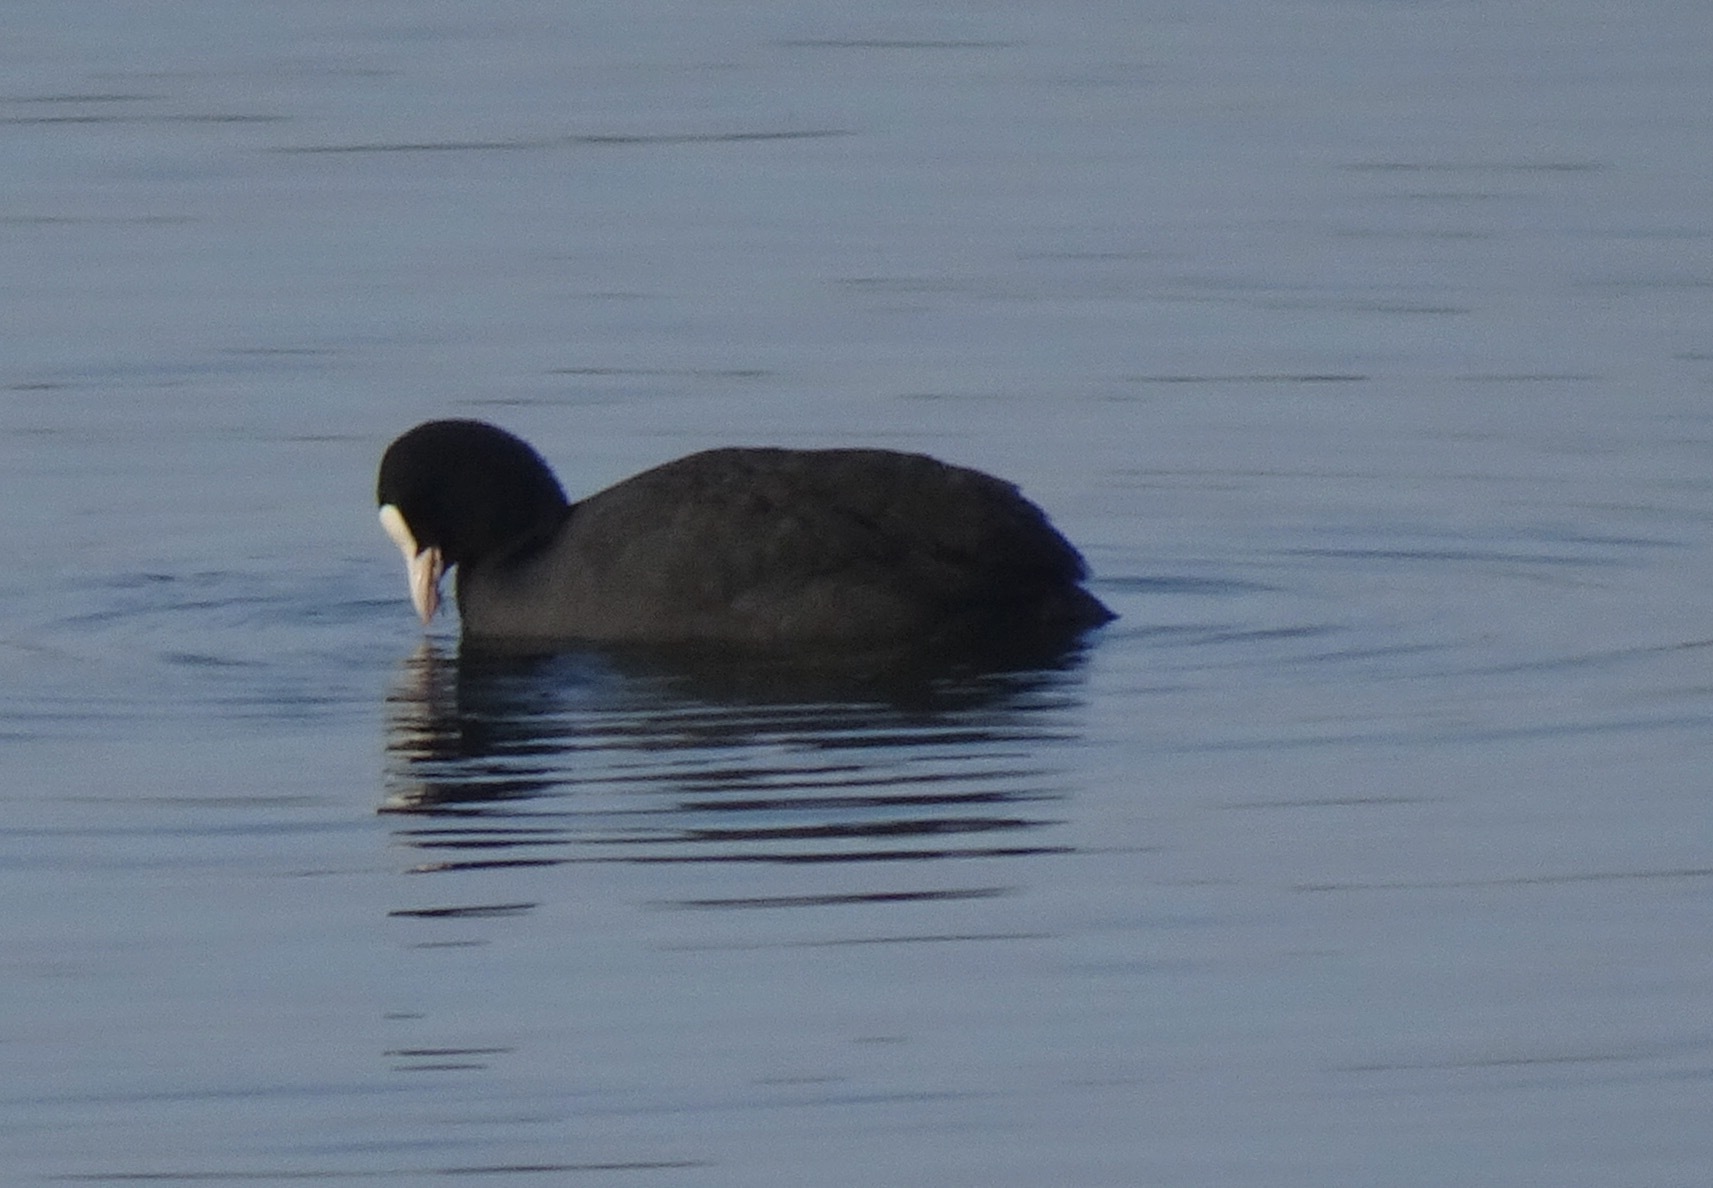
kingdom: Animalia
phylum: Chordata
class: Aves
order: Gruiformes
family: Rallidae
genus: Fulica
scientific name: Fulica atra
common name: Eurasian coot
